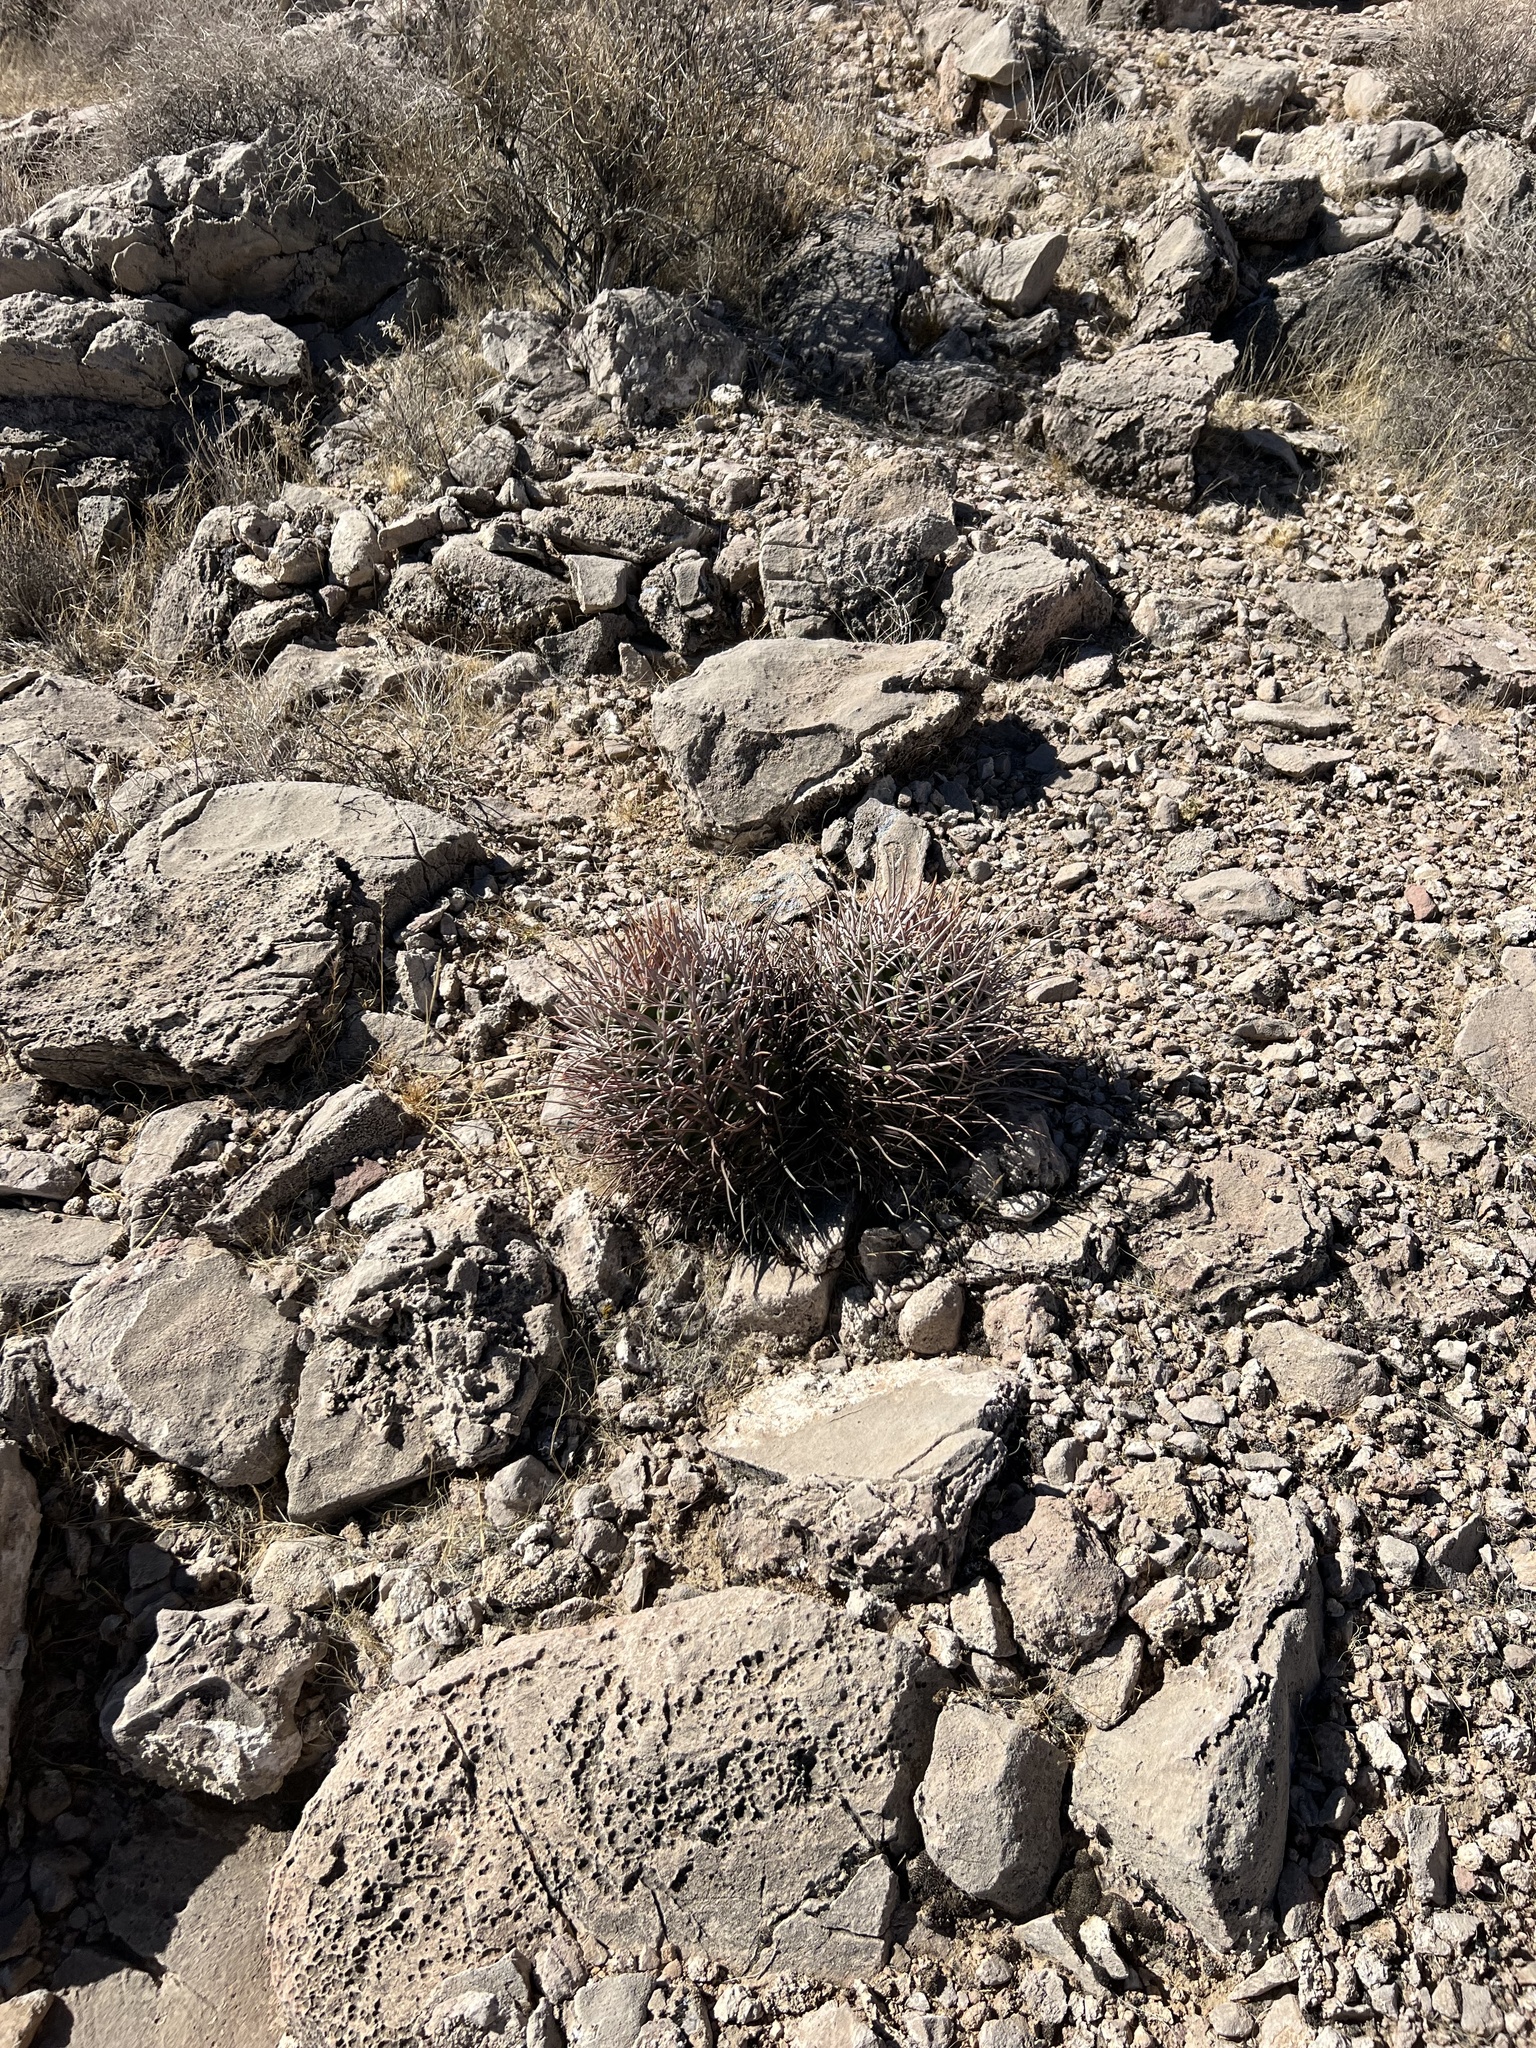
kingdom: Plantae
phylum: Tracheophyta
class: Magnoliopsida
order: Caryophyllales
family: Cactaceae
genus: Echinocactus
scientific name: Echinocactus polycephalus
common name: Cottontop cactus
